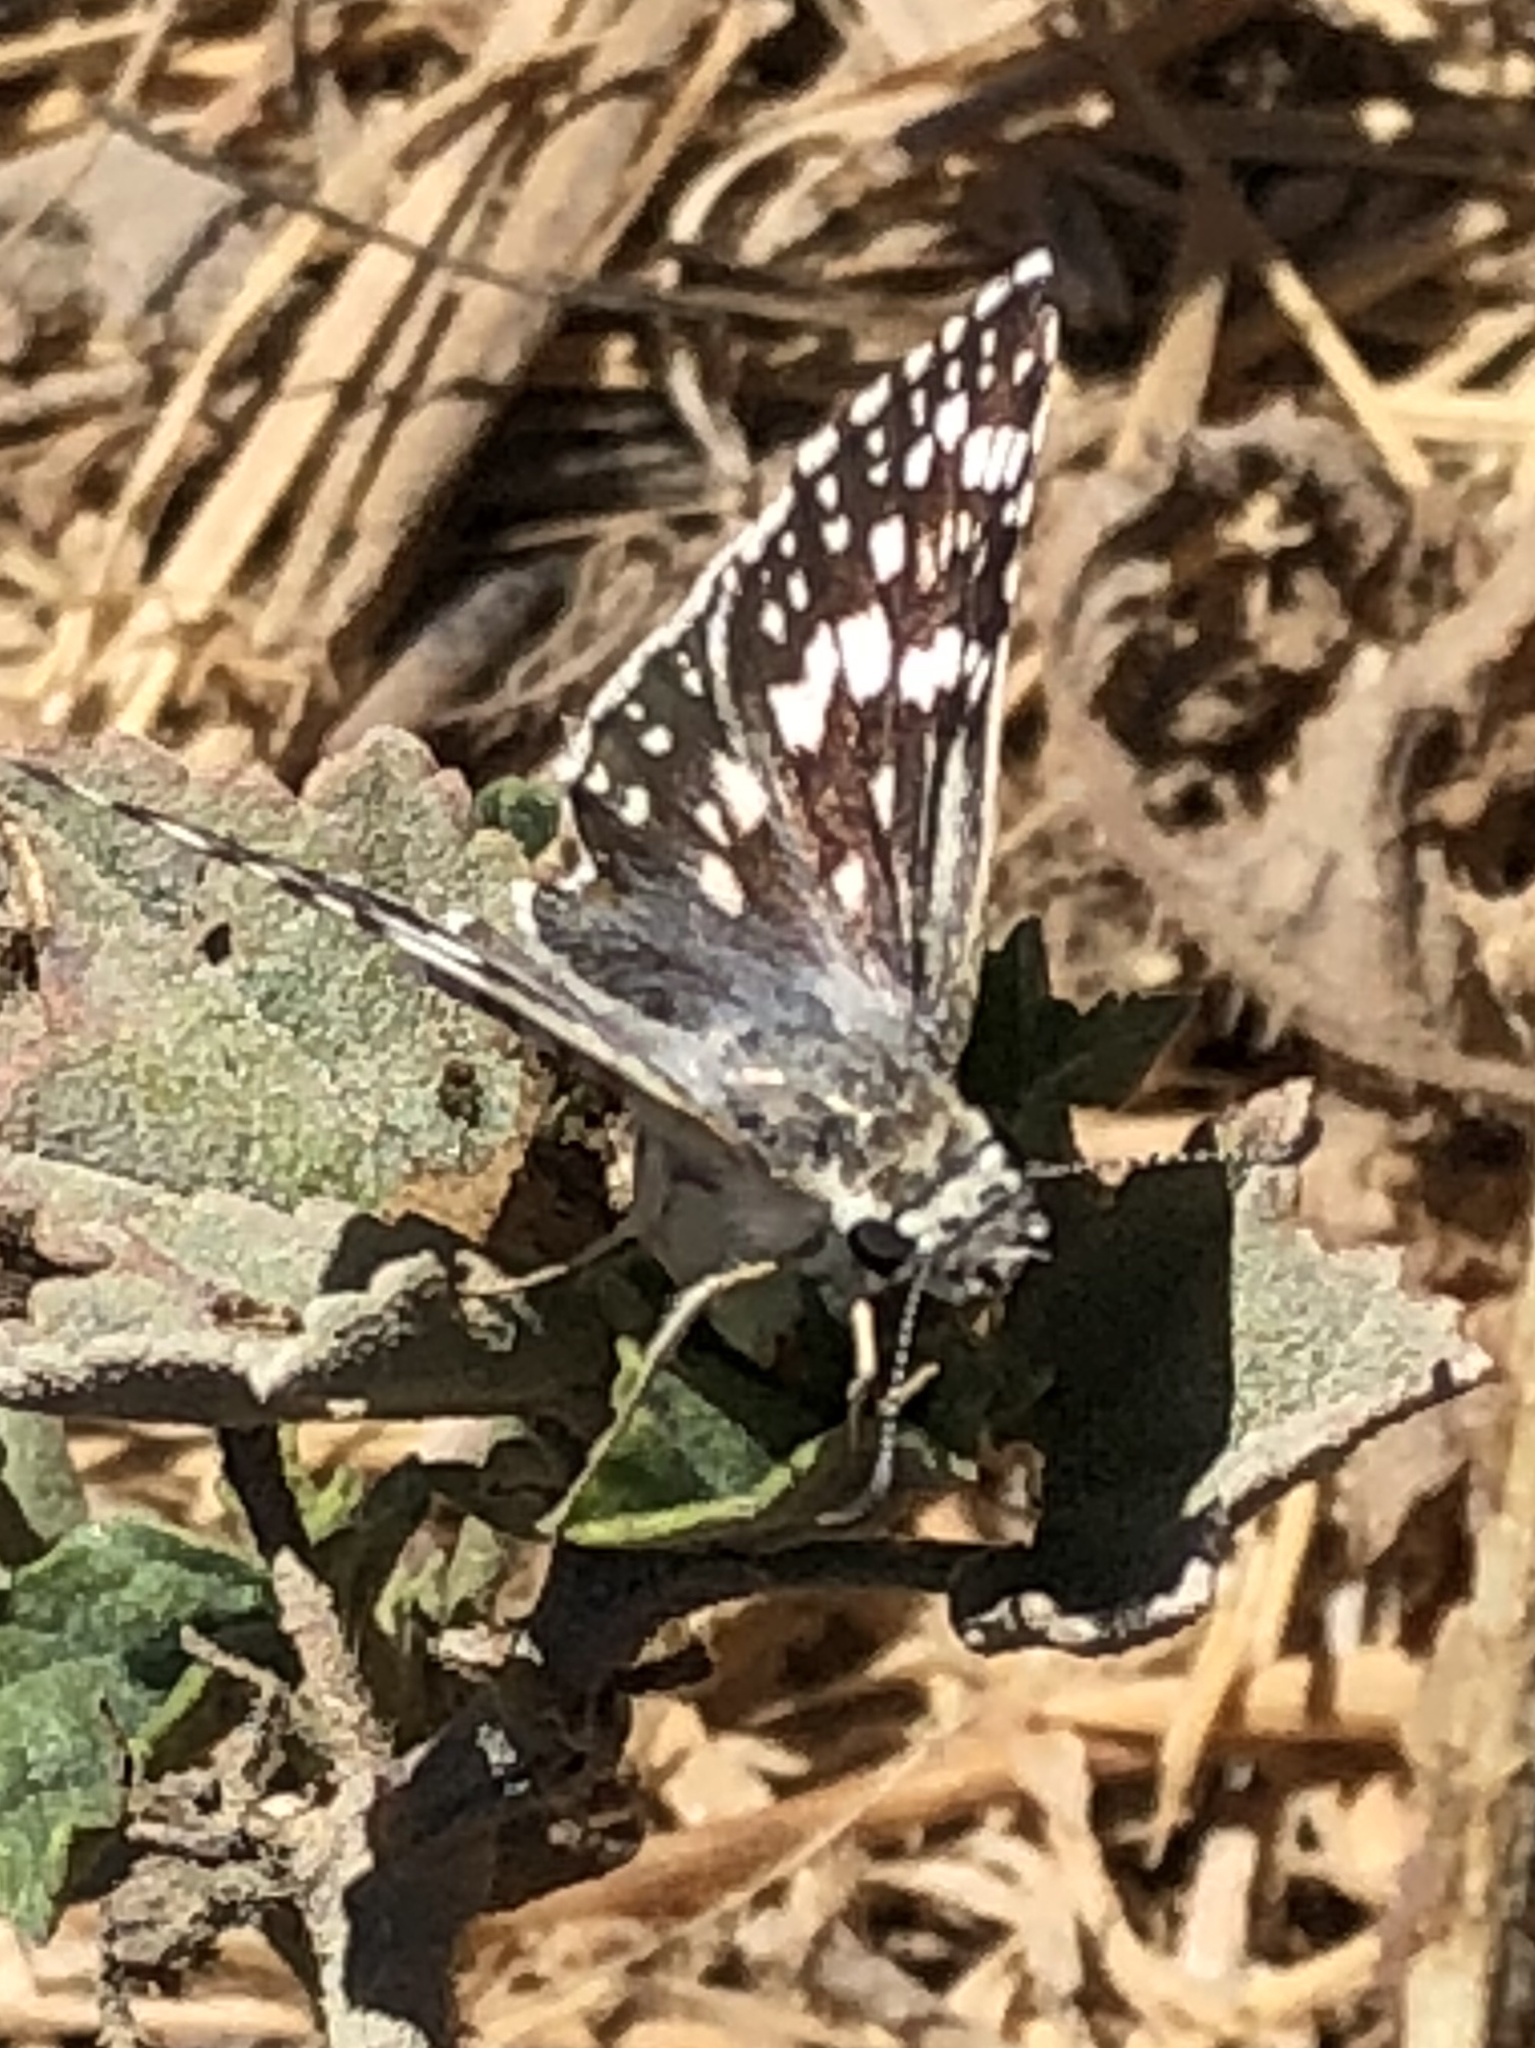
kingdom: Animalia
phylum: Arthropoda
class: Insecta
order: Lepidoptera
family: Hesperiidae
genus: Burnsius
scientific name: Burnsius communis
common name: Common checkered-skipper
